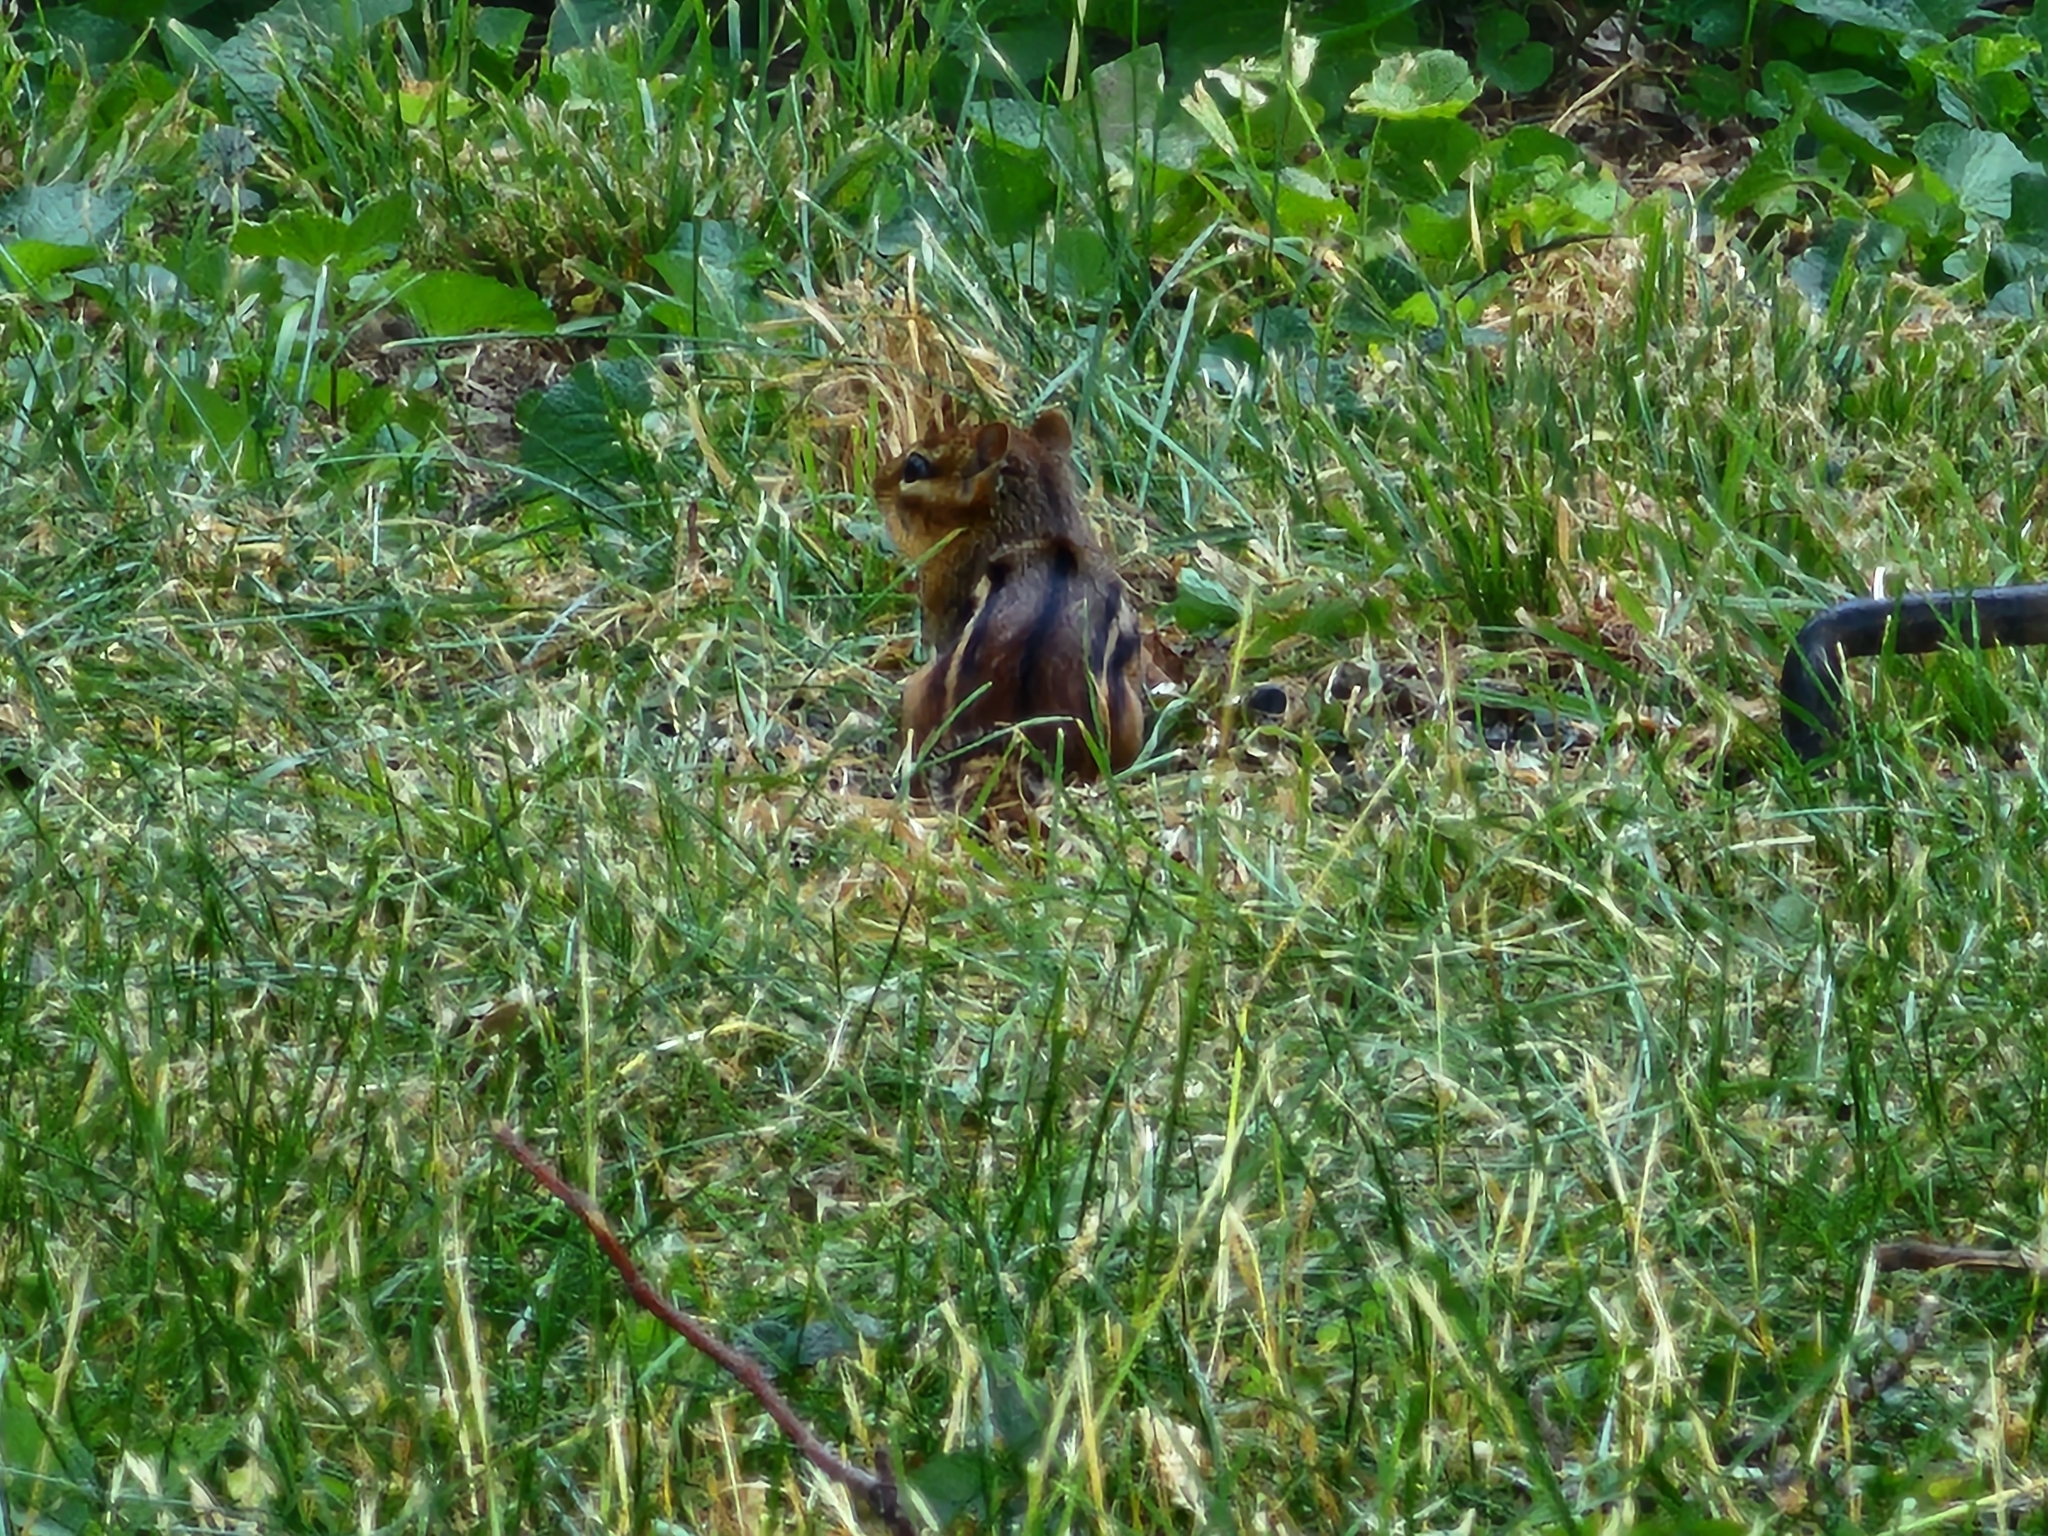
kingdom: Animalia
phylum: Chordata
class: Mammalia
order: Rodentia
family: Sciuridae
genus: Tamias
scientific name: Tamias striatus
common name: Eastern chipmunk
